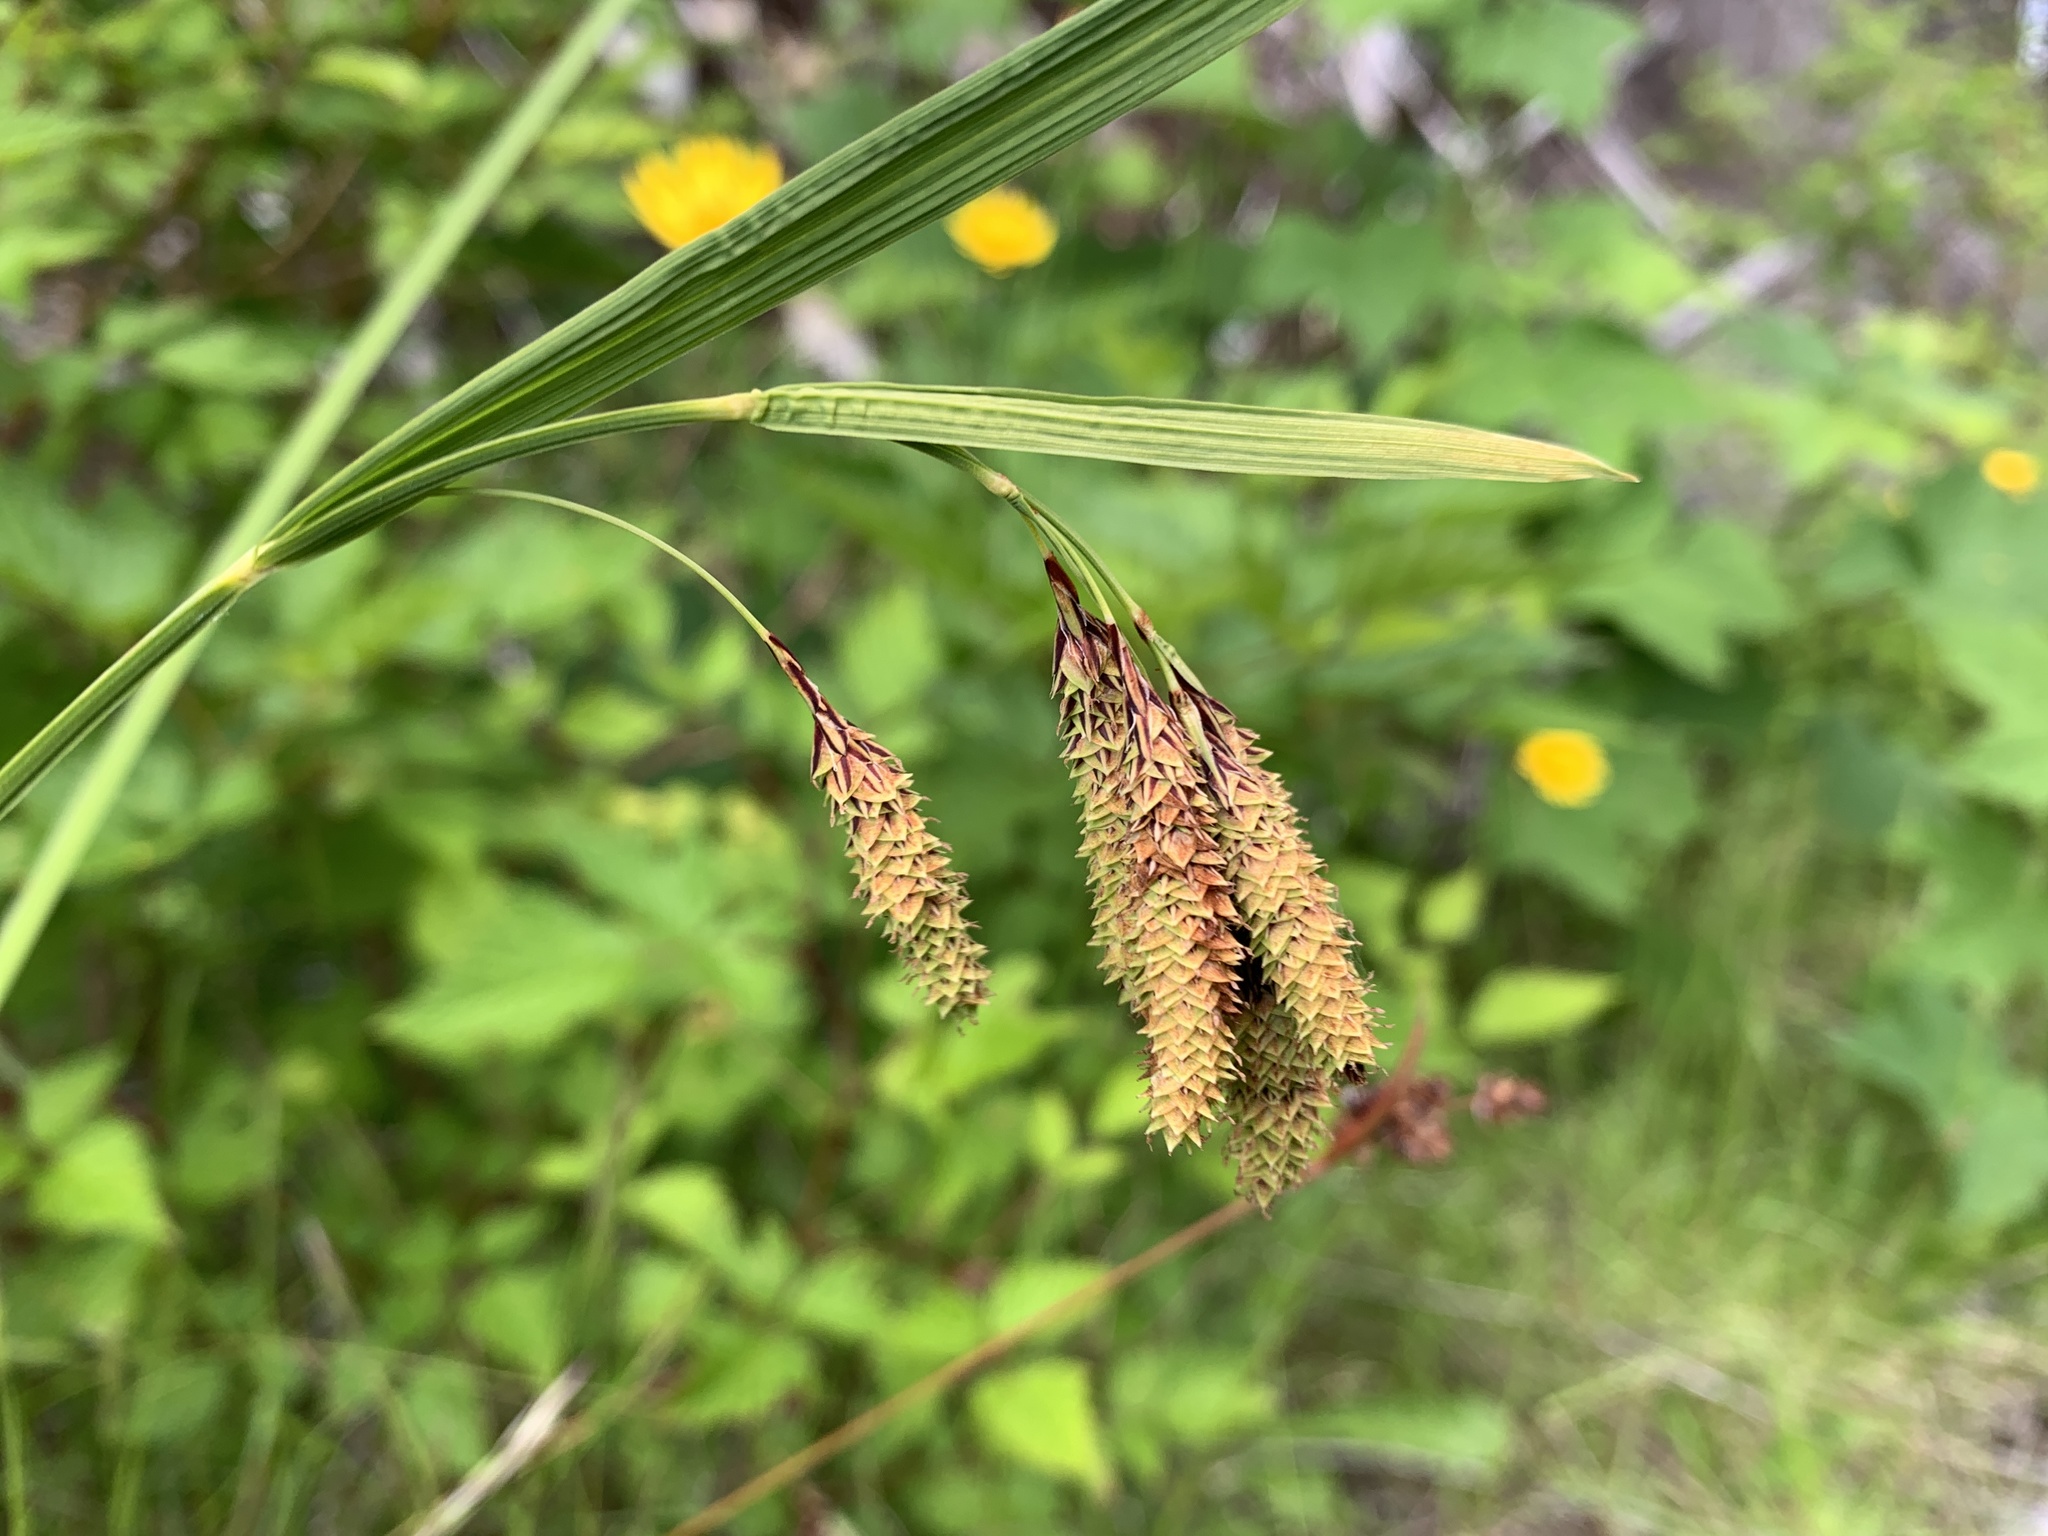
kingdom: Plantae
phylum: Tracheophyta
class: Liliopsida
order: Poales
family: Cyperaceae
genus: Carex
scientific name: Carex mertensii
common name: Mertens' sedge
